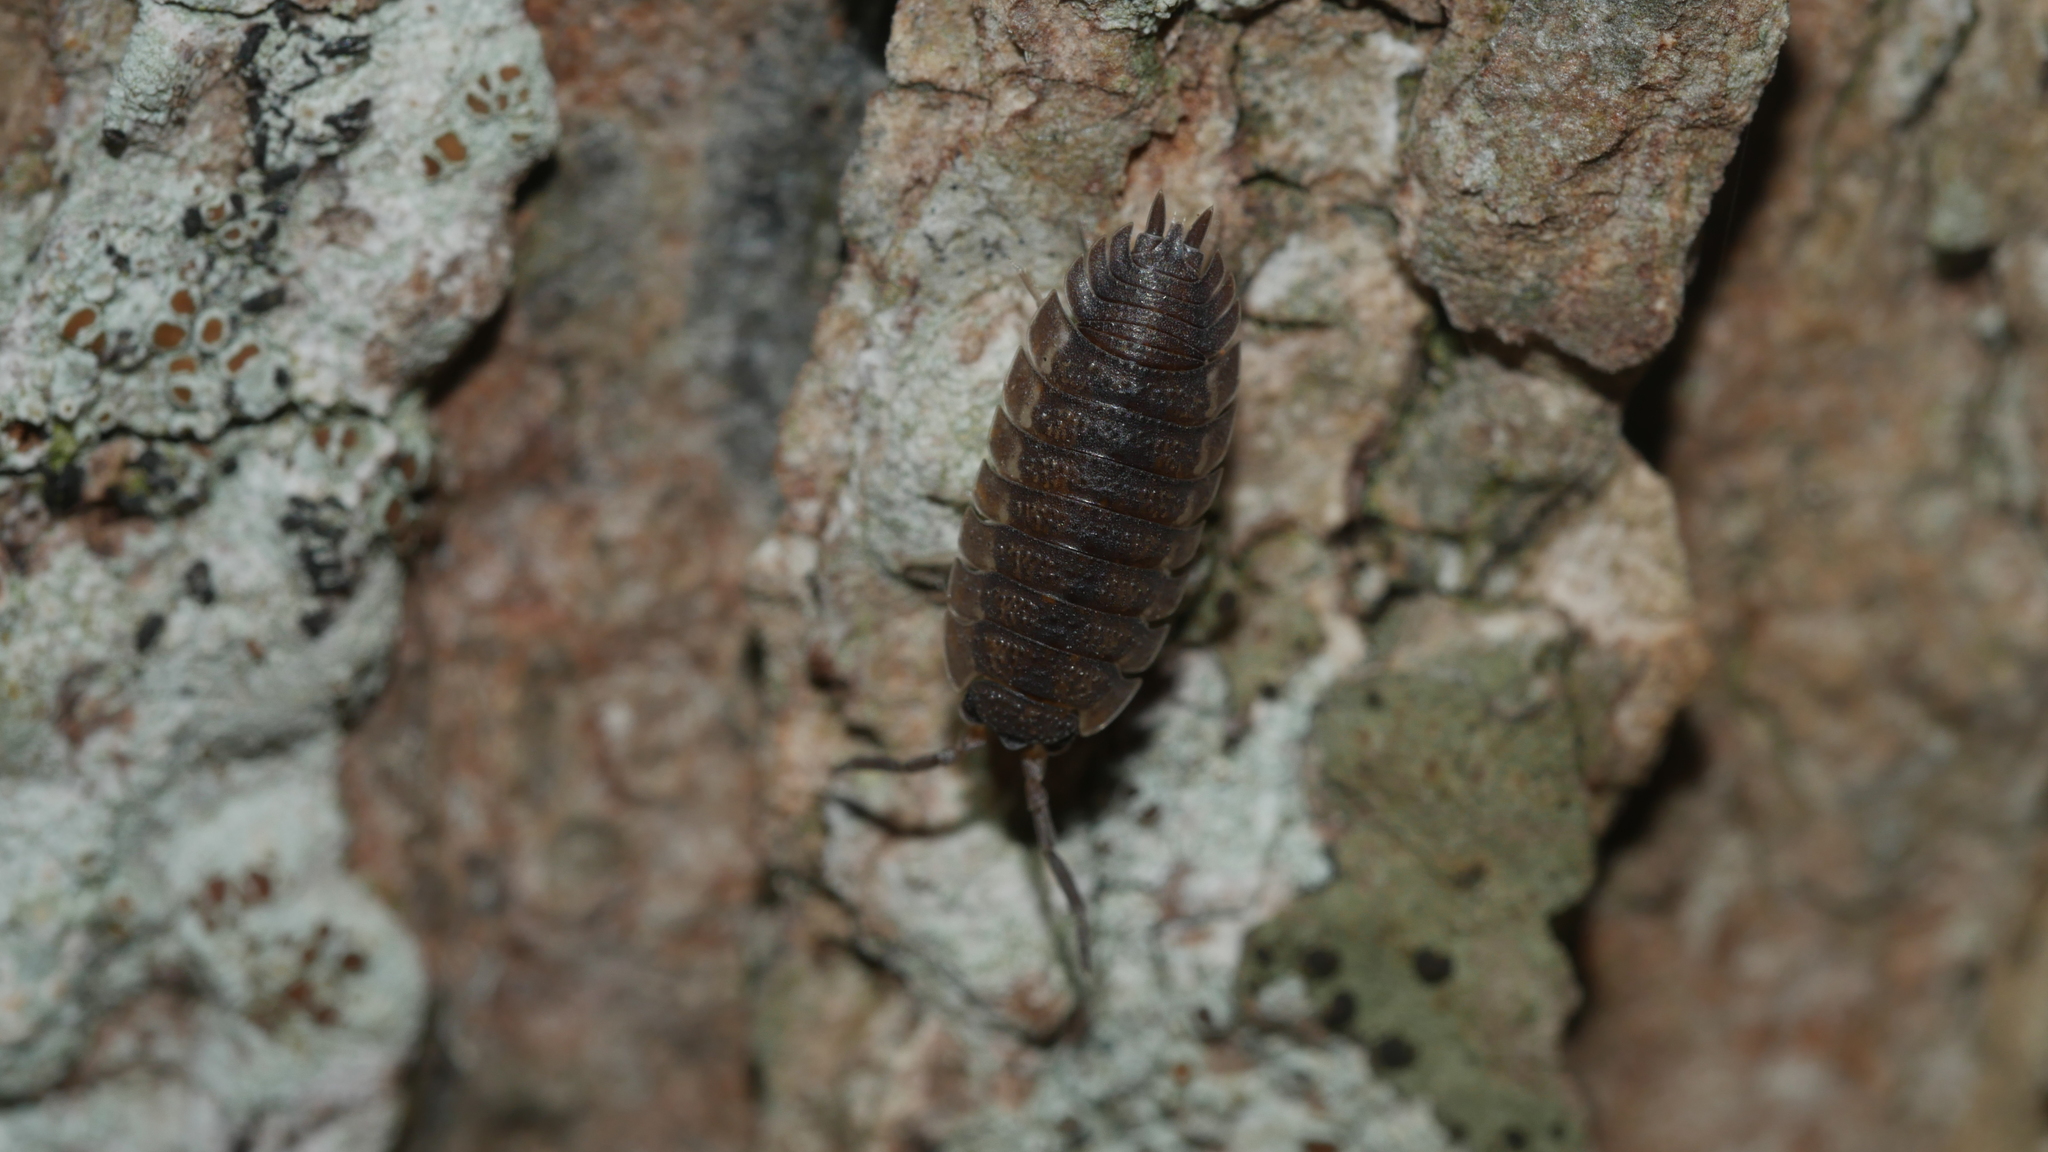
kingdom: Animalia
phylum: Arthropoda
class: Malacostraca
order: Isopoda
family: Porcellionidae
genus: Porcellio
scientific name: Porcellio scaber
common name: Common rough woodlouse
